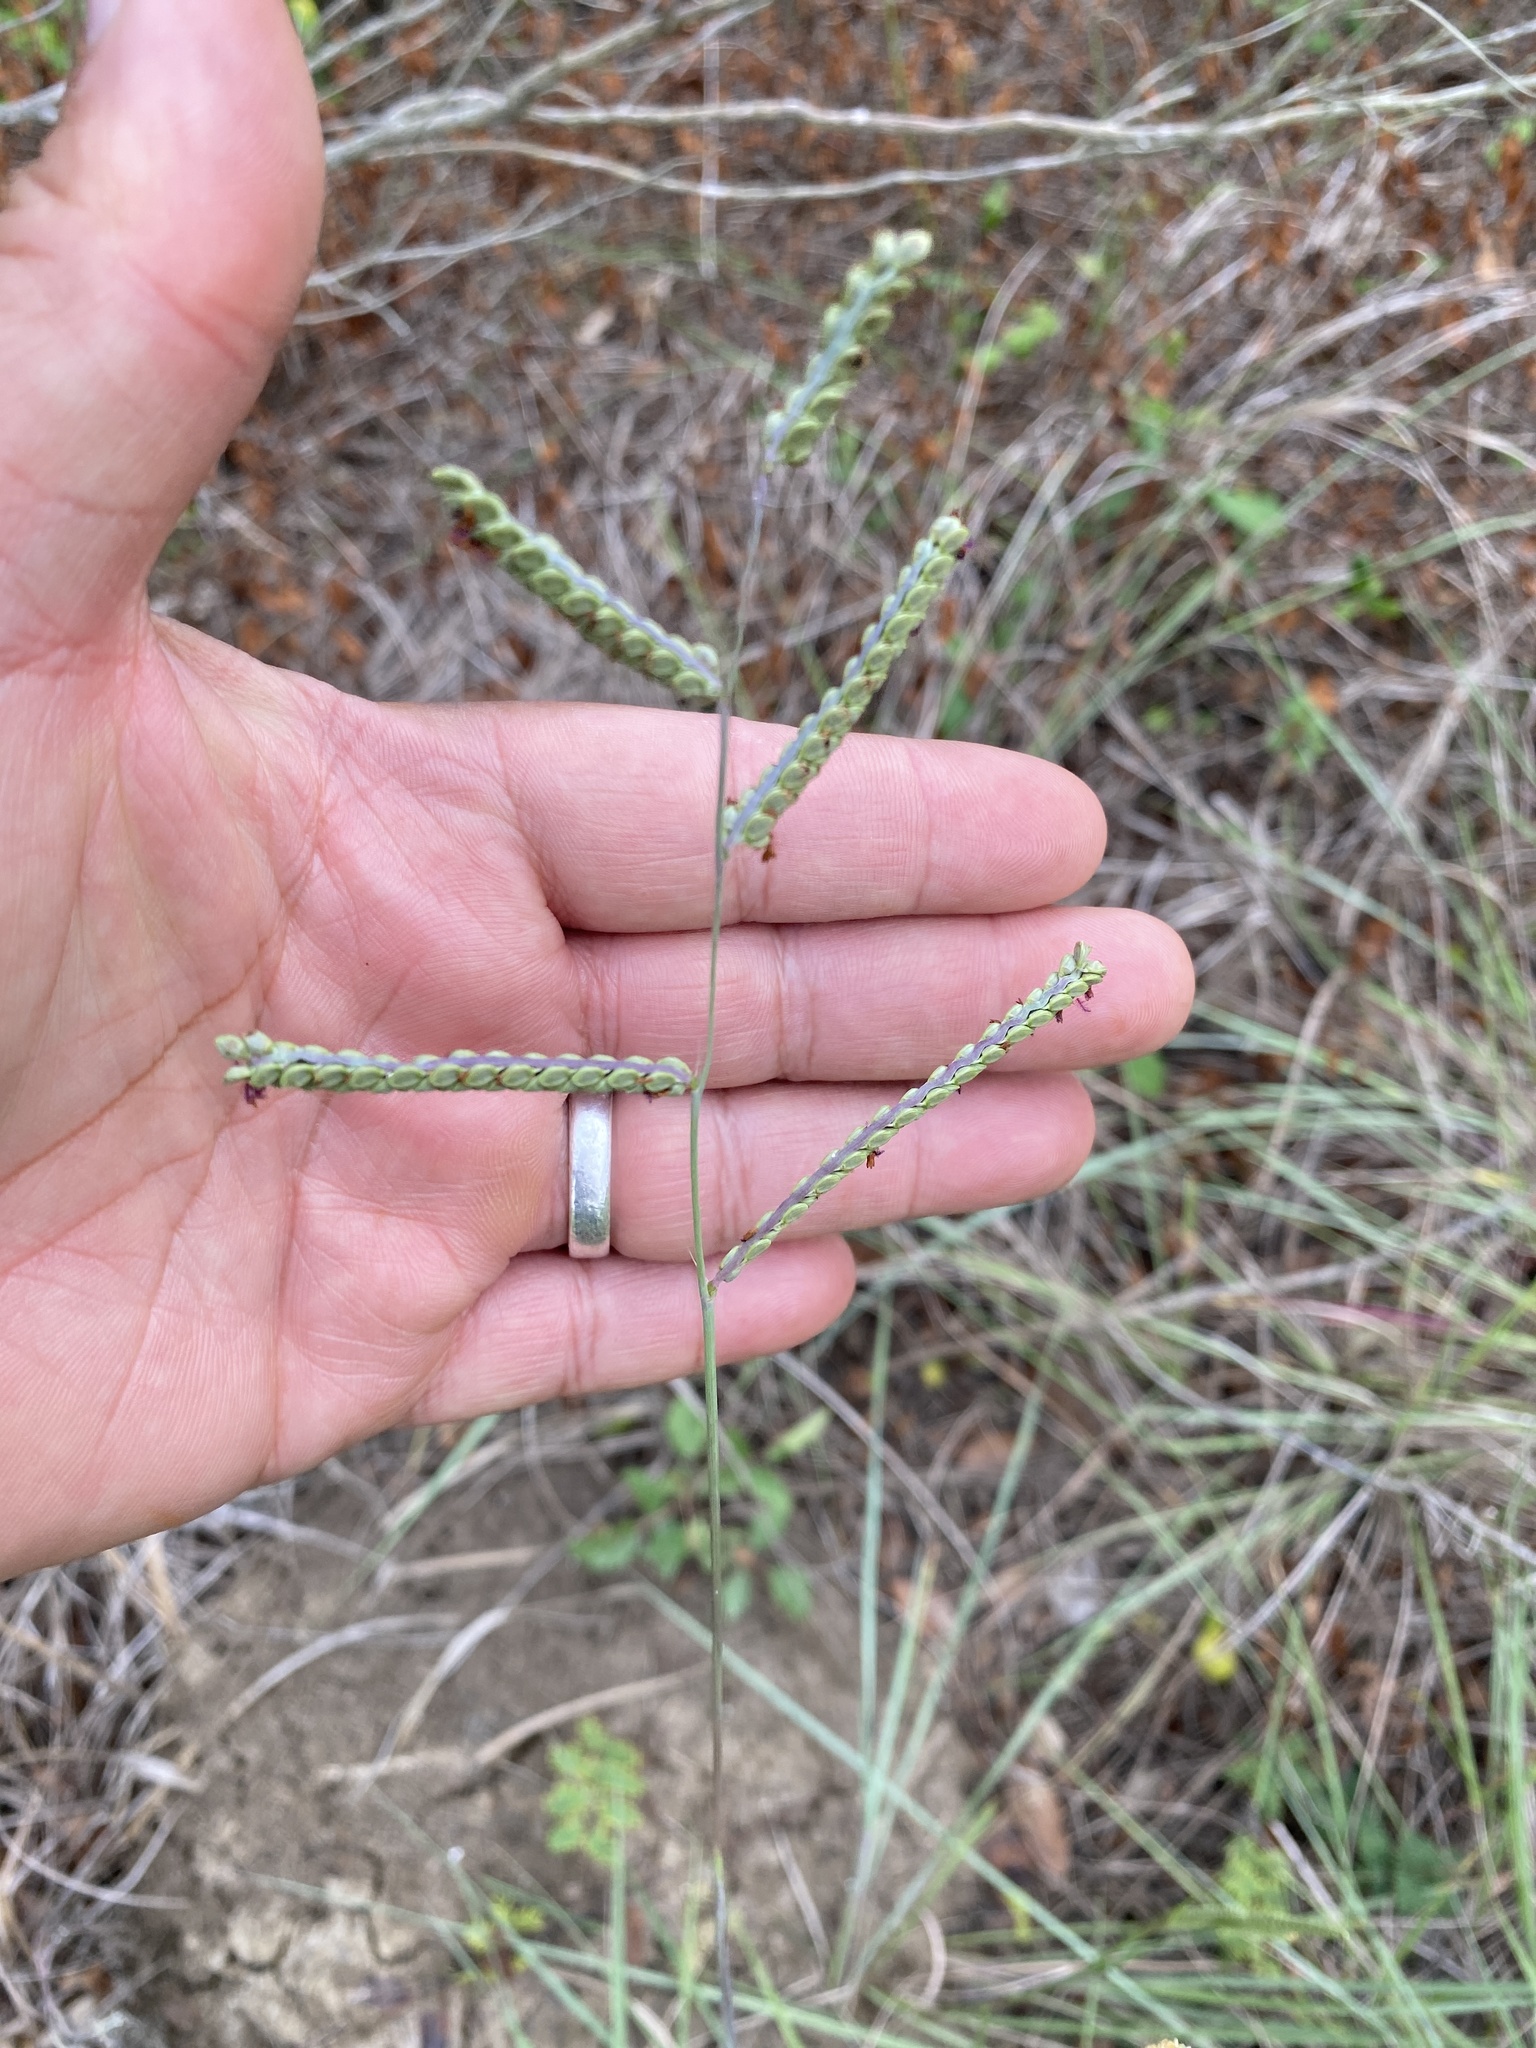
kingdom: Plantae
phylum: Tracheophyta
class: Liliopsida
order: Poales
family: Poaceae
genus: Paspalum
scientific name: Paspalum plicatulum
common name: Top paspalum
